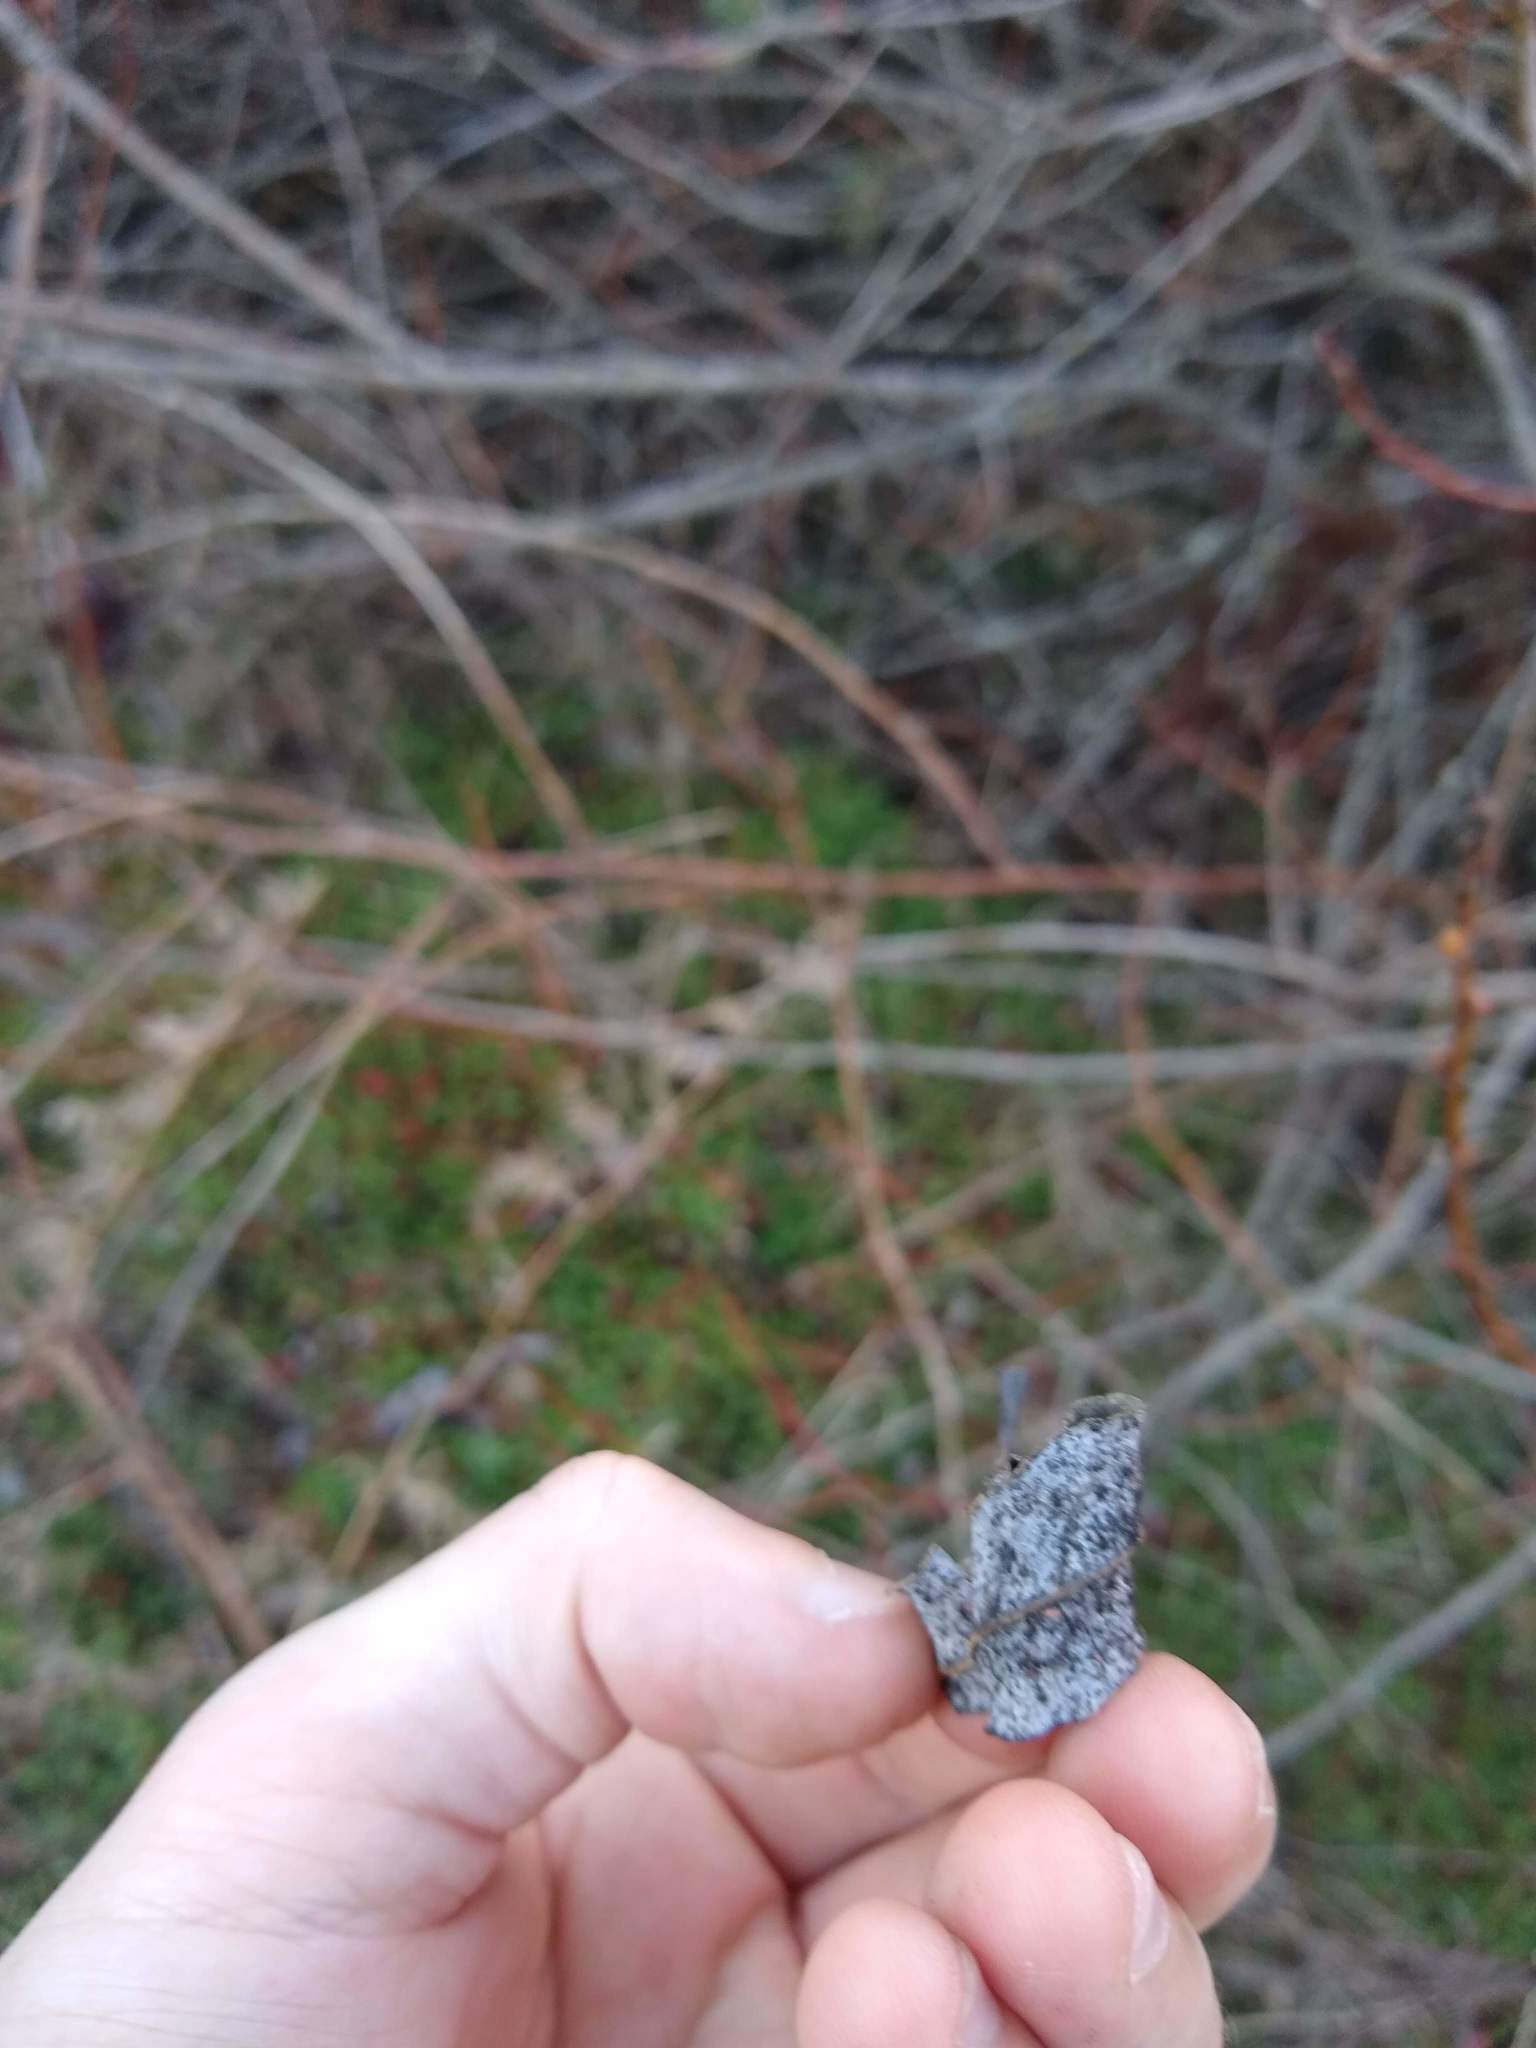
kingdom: Plantae
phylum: Tracheophyta
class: Magnoliopsida
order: Malpighiales
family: Salicaceae
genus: Salix
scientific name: Salix
